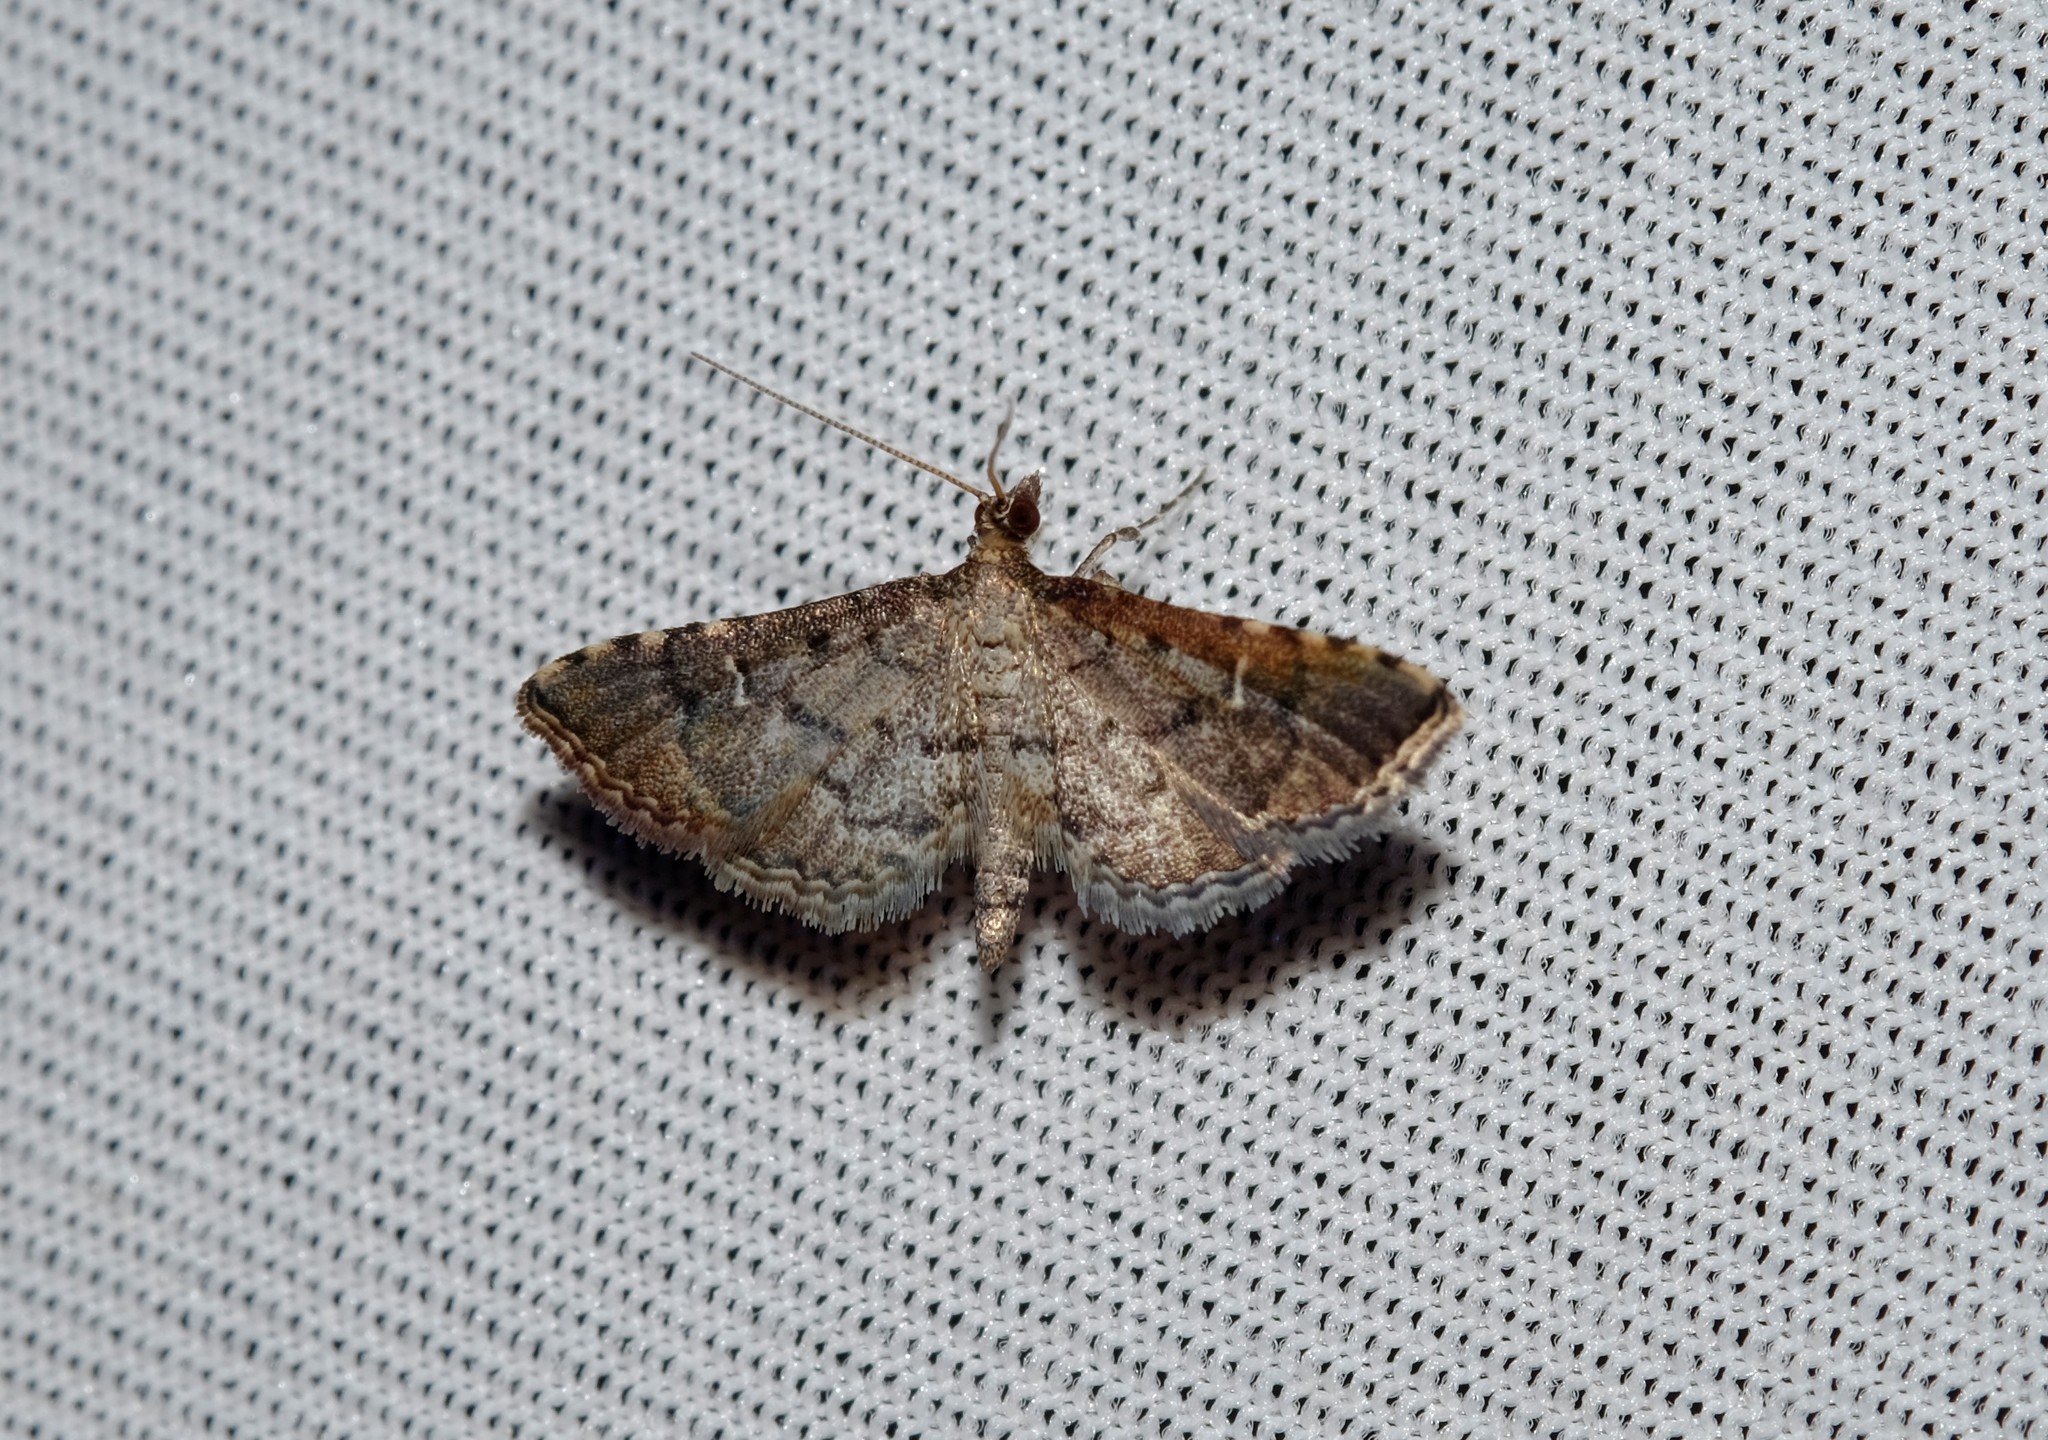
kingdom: Animalia
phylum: Arthropoda
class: Insecta
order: Lepidoptera
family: Crambidae
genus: Metasia
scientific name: Metasia capnochroa
